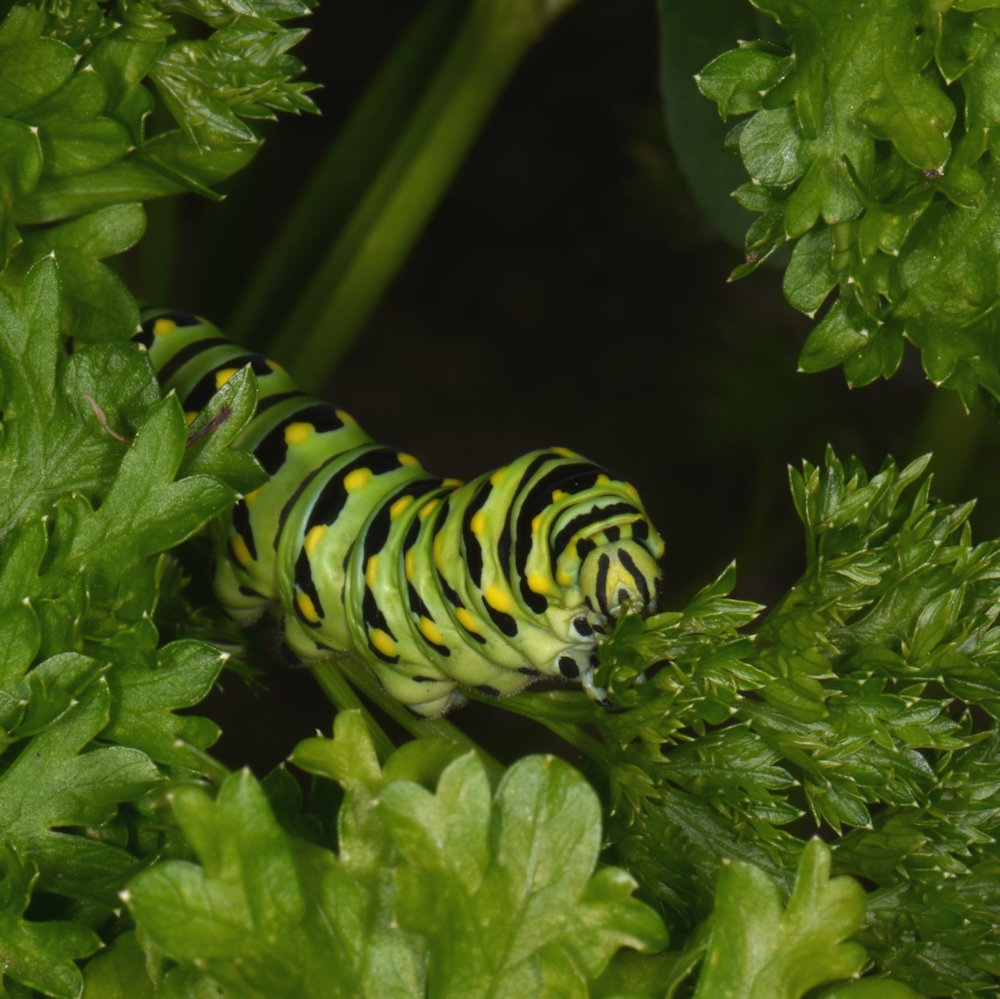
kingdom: Animalia
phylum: Arthropoda
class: Insecta
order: Lepidoptera
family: Papilionidae
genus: Papilio
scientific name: Papilio polyxenes
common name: Black swallowtail
